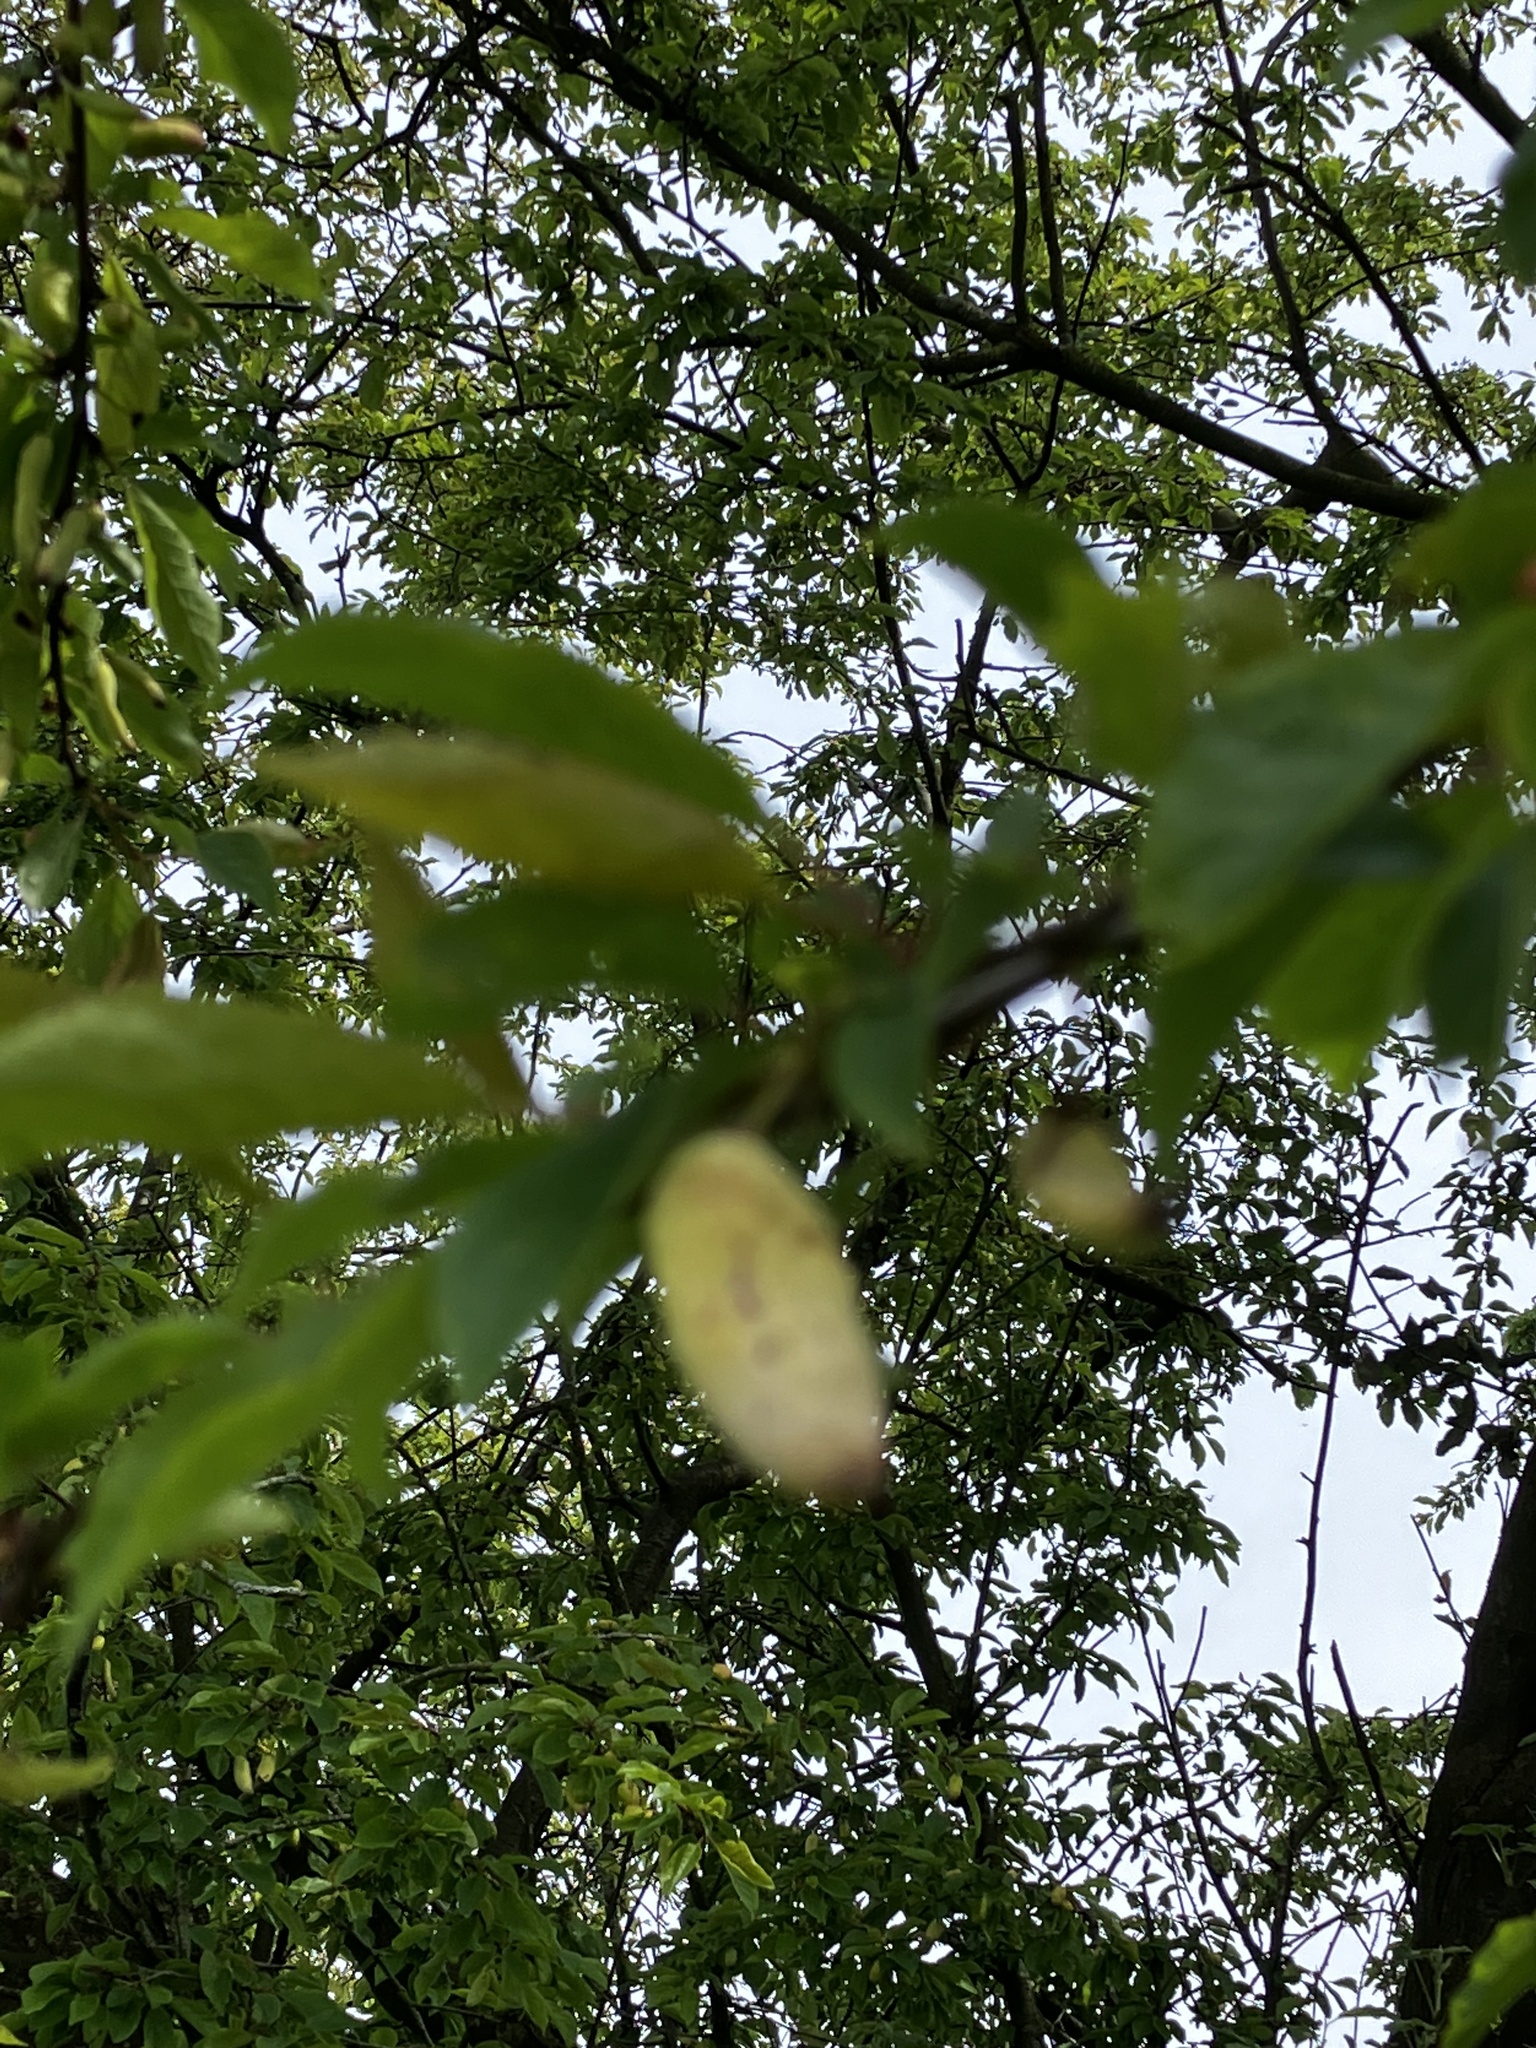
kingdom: Fungi
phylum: Ascomycota
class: Taphrinomycetes
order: Taphrinales
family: Taphrinaceae
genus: Taphrina
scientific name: Taphrina pruni
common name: Pocket plum
